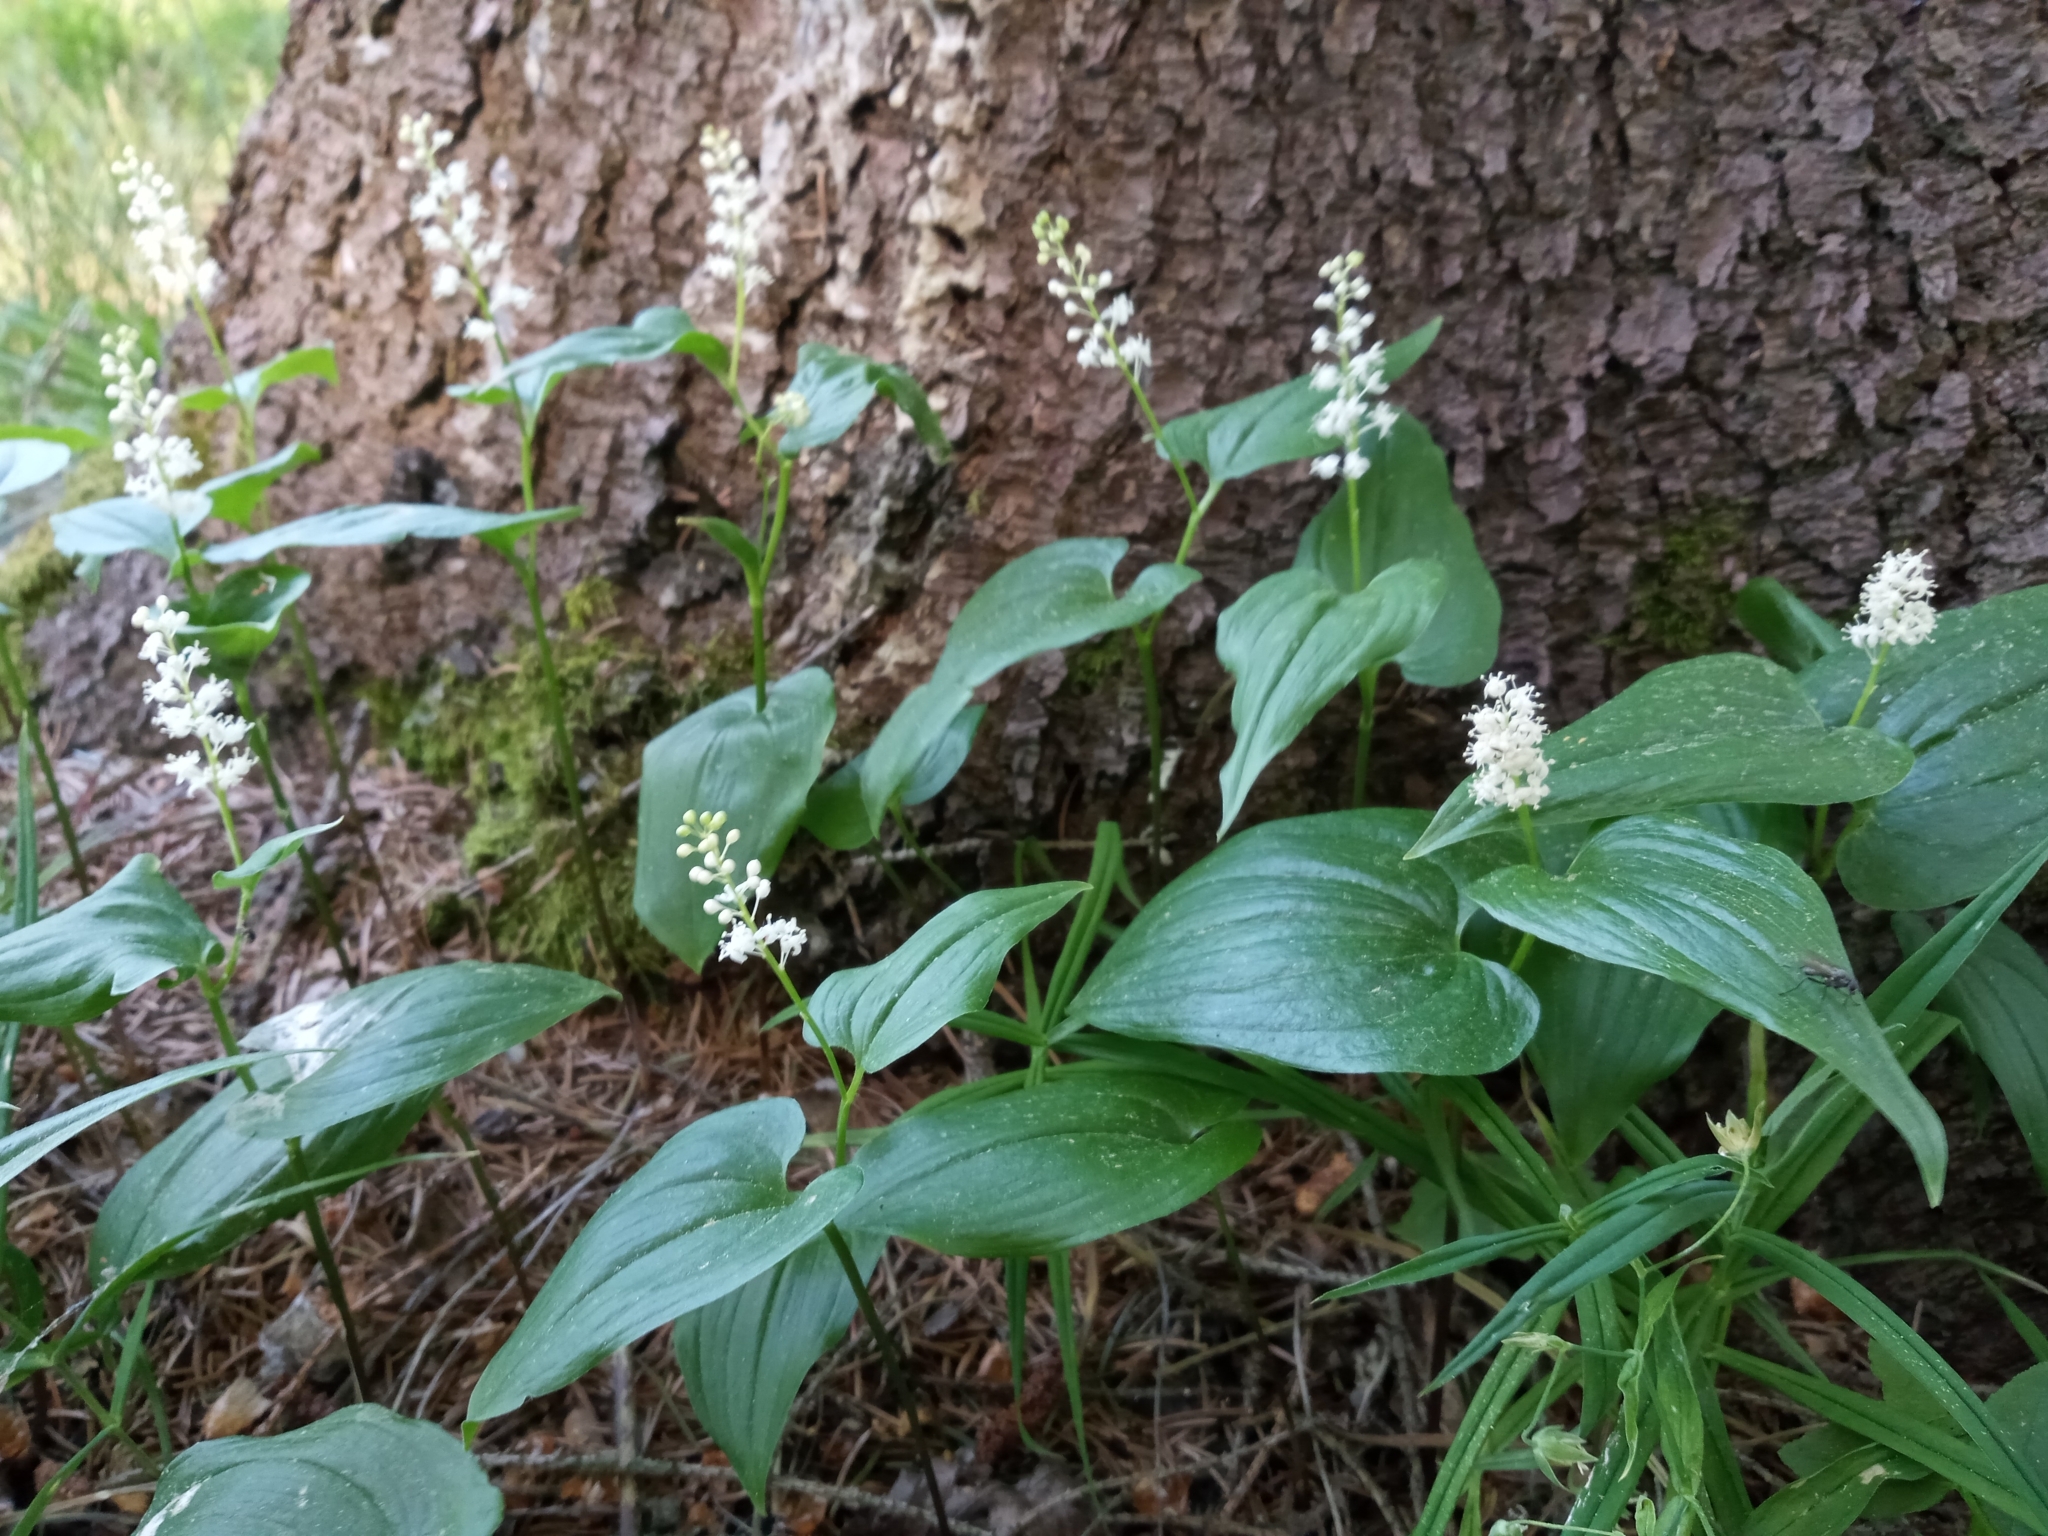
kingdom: Plantae
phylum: Tracheophyta
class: Liliopsida
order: Asparagales
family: Asparagaceae
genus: Maianthemum
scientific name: Maianthemum bifolium
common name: May lily
